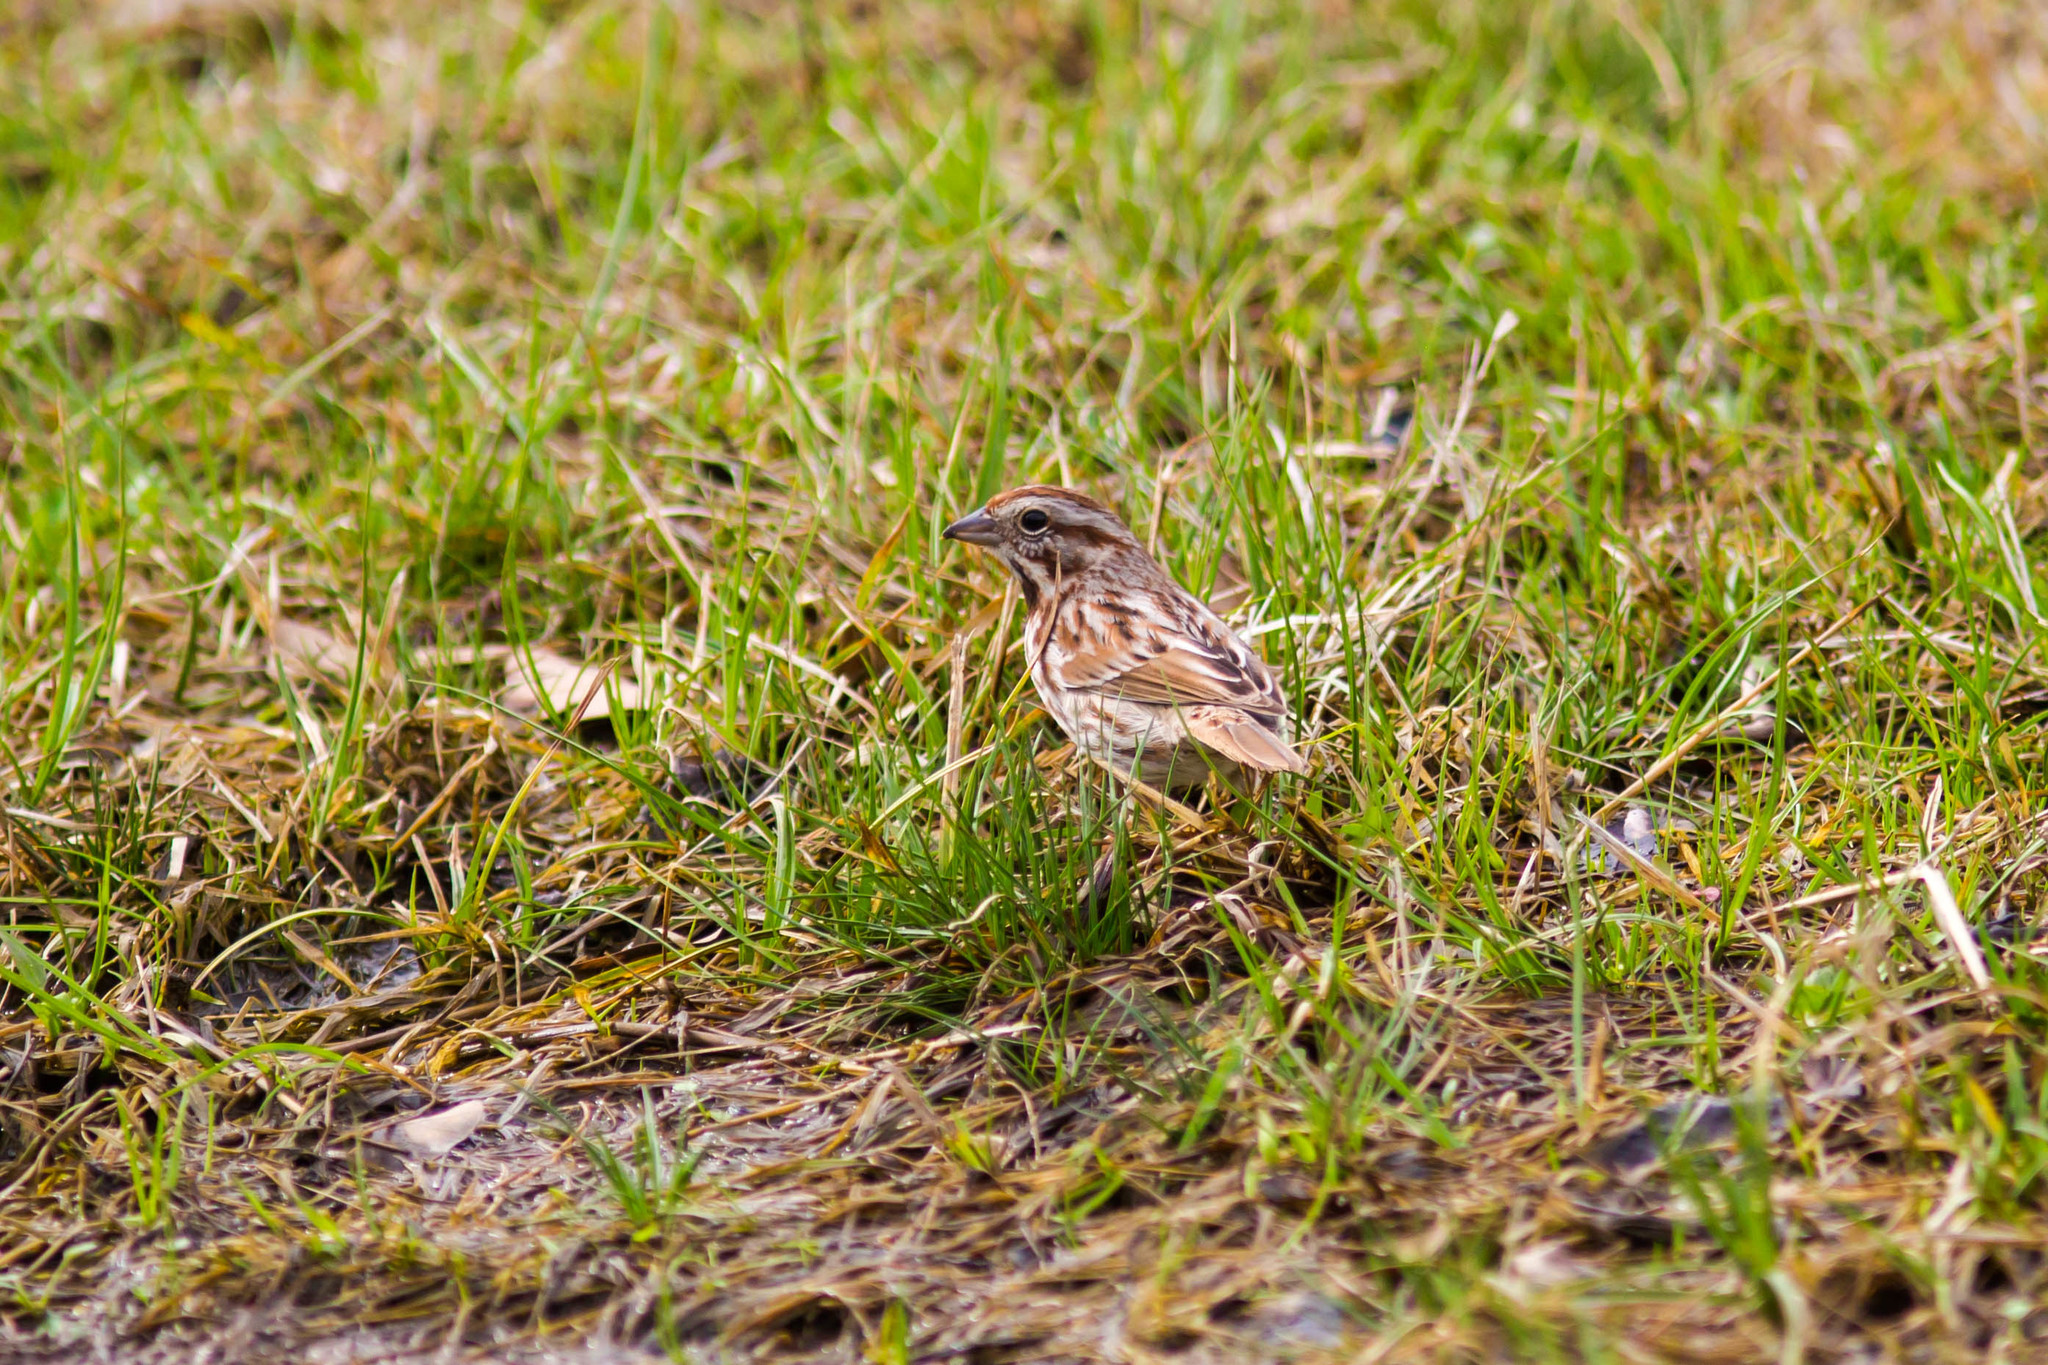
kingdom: Animalia
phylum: Chordata
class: Aves
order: Passeriformes
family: Passerellidae
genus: Melospiza
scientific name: Melospiza melodia
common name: Song sparrow
